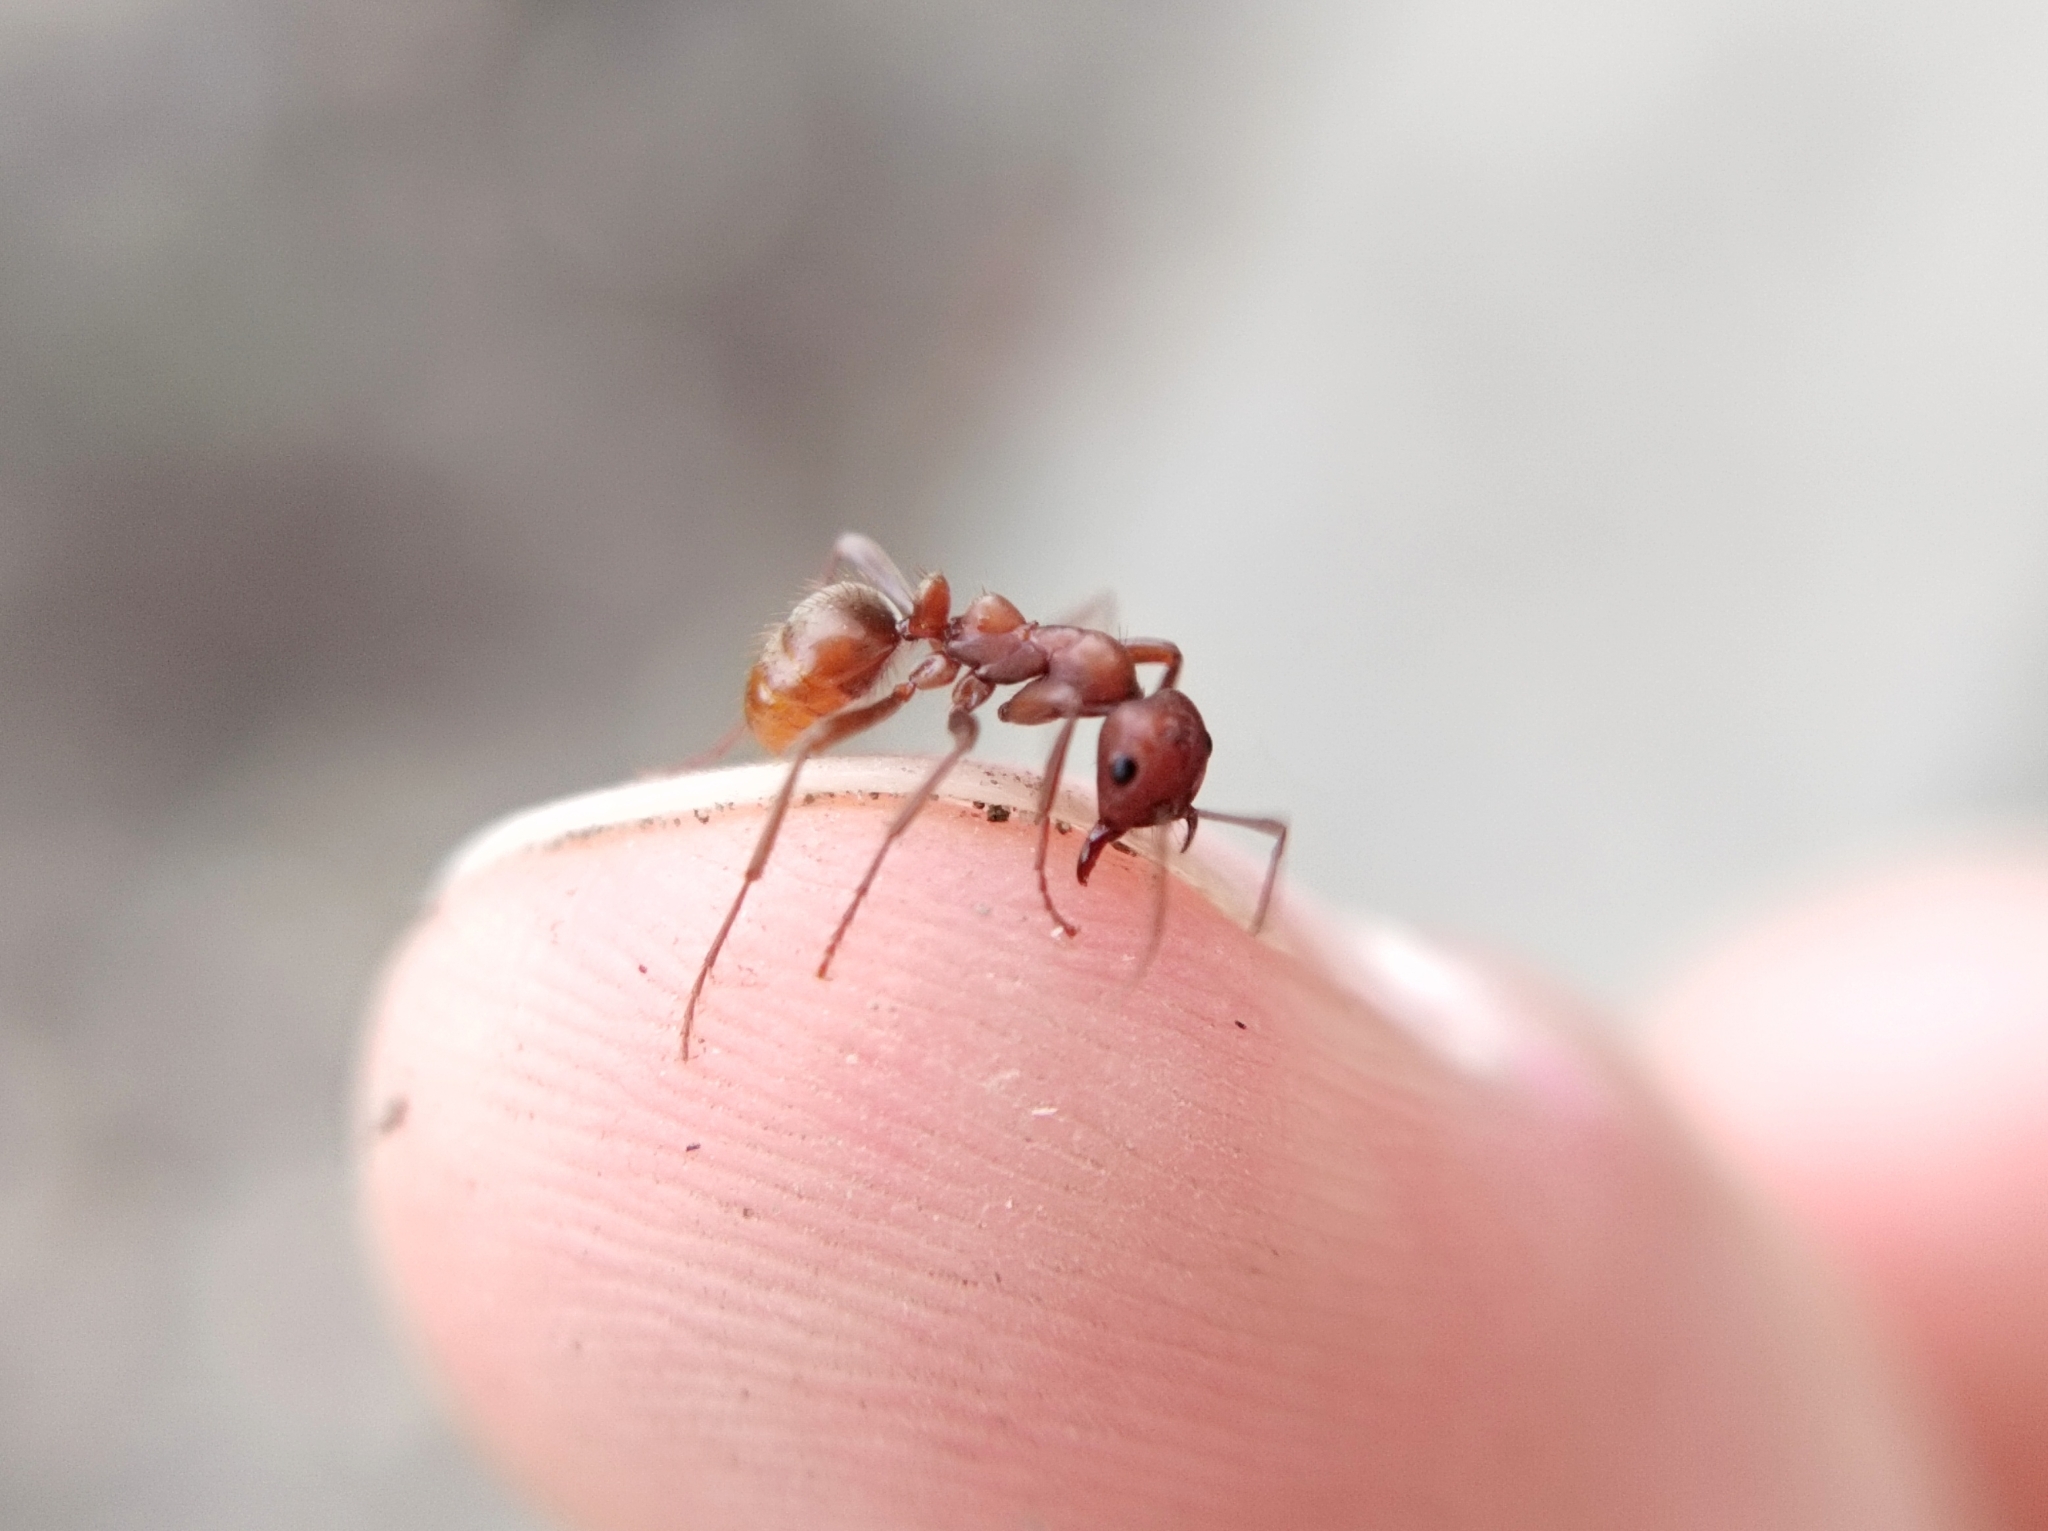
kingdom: Animalia
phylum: Arthropoda
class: Insecta
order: Hymenoptera
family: Formicidae
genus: Polyergus
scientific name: Polyergus rufescens
